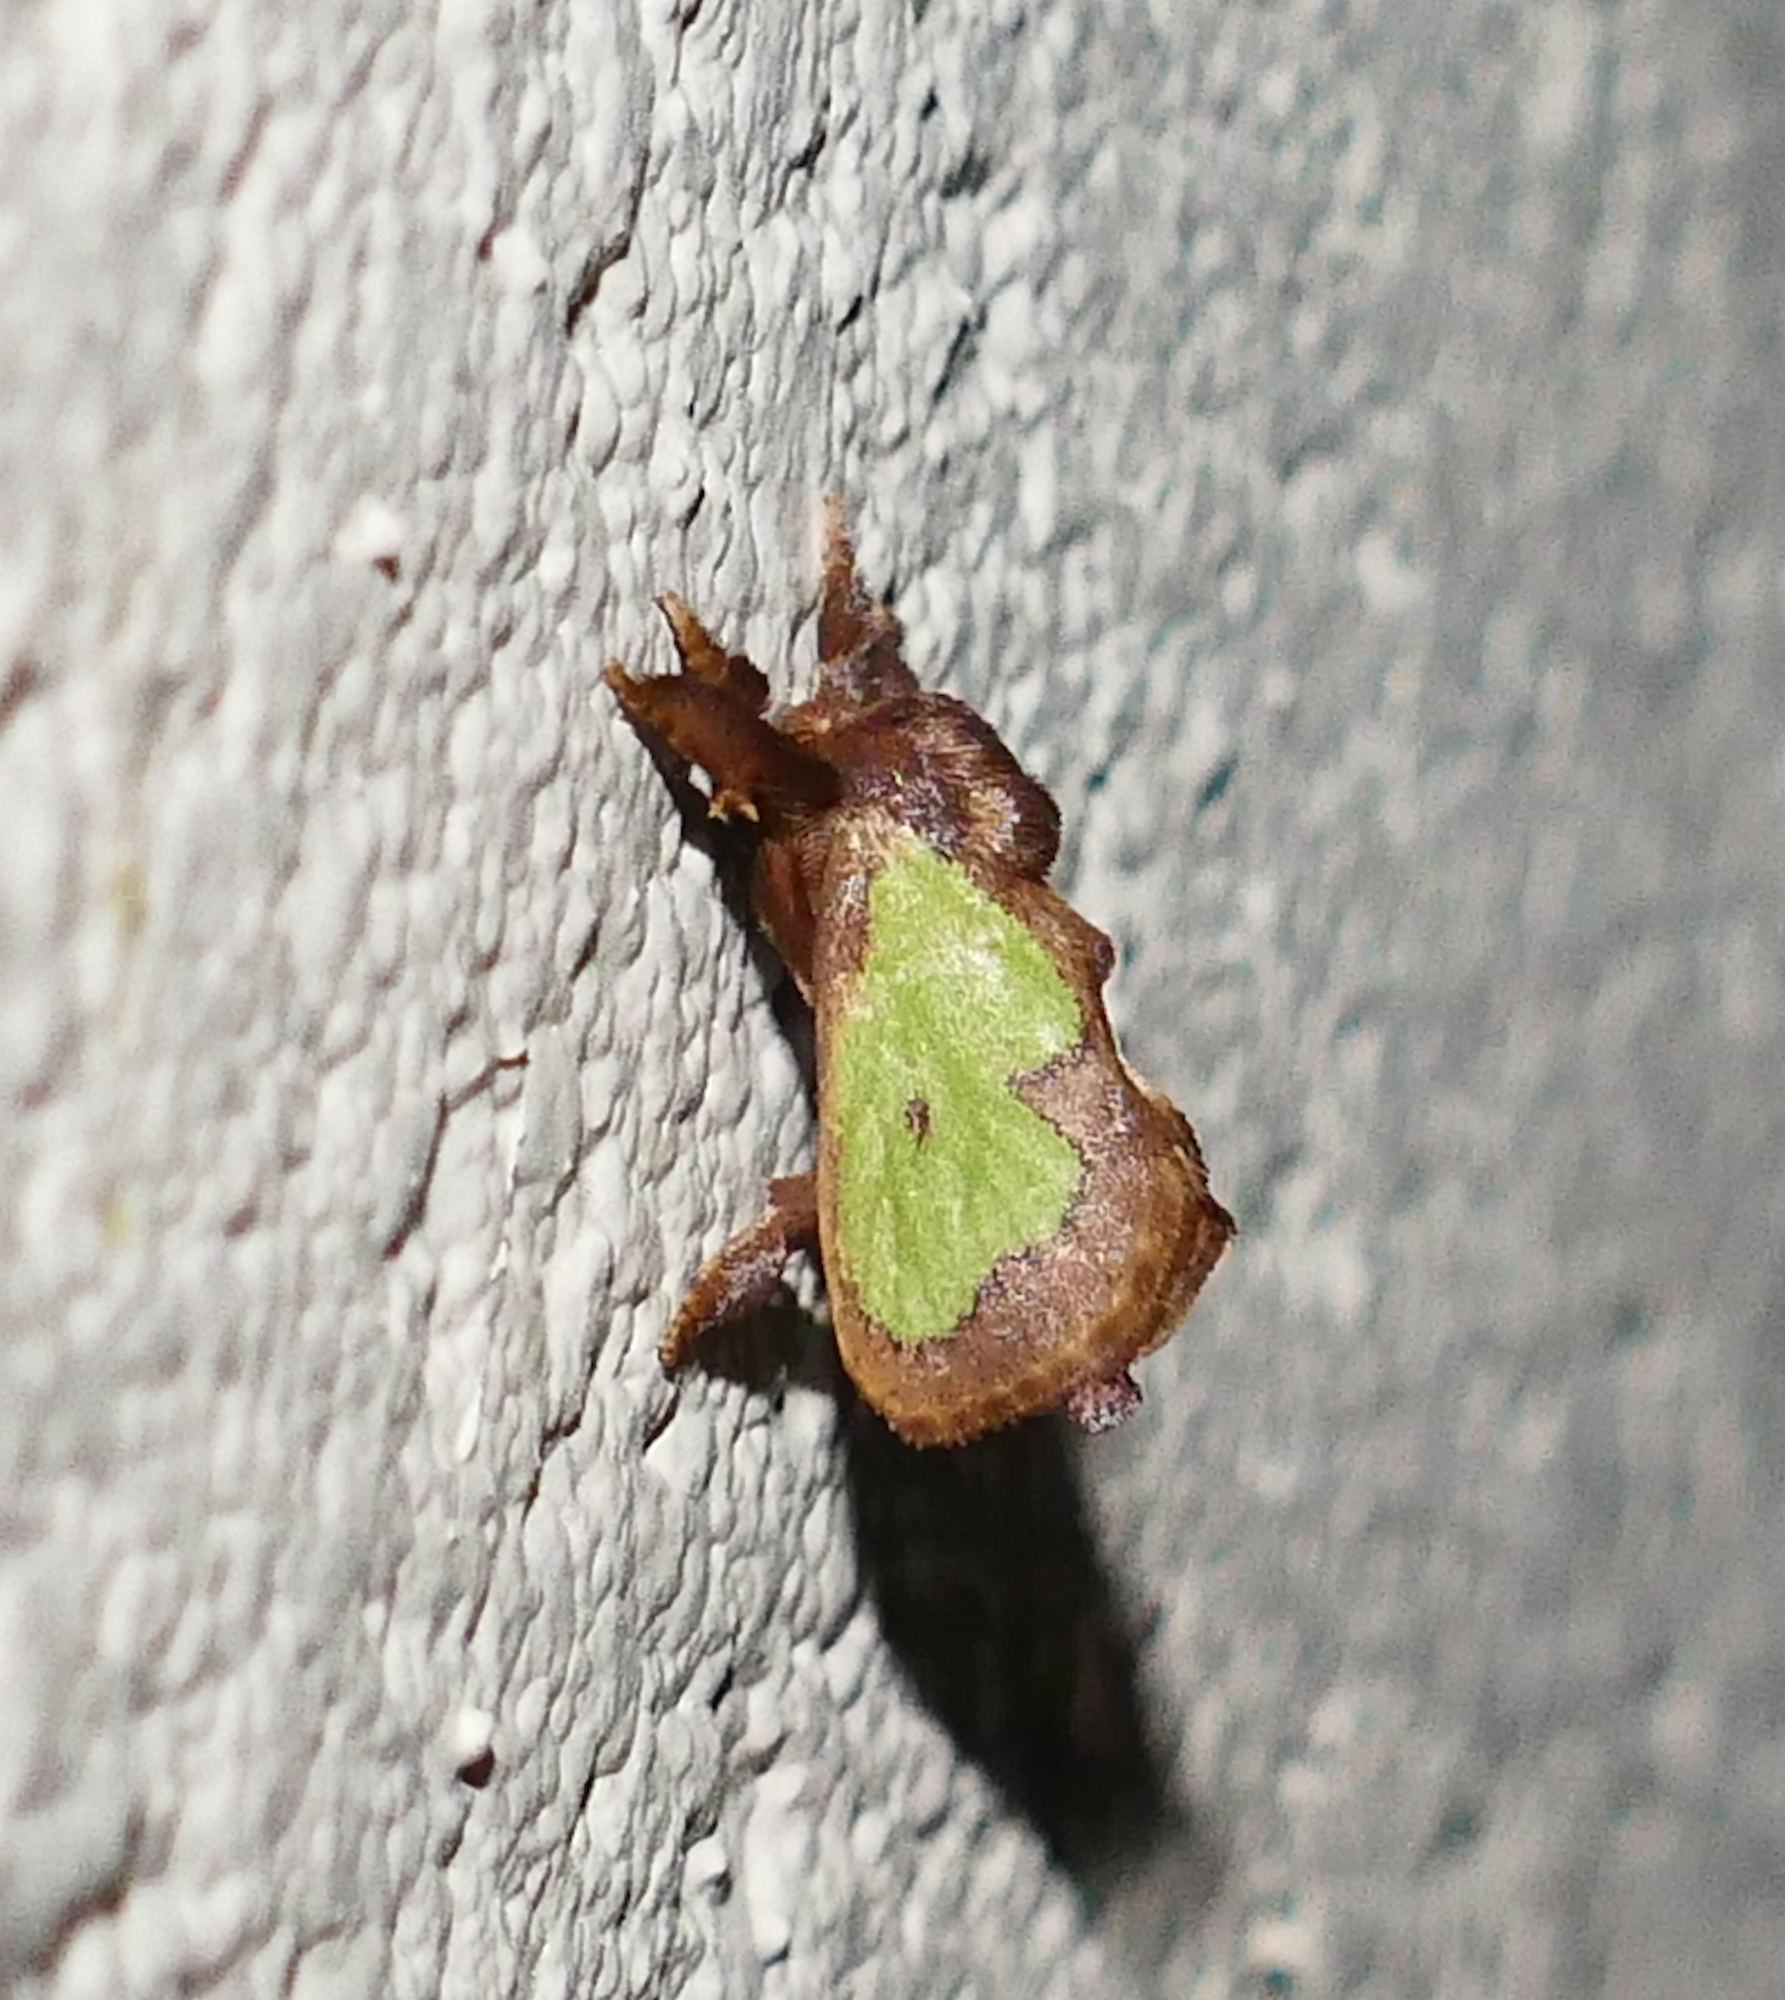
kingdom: Animalia
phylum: Arthropoda
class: Insecta
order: Lepidoptera
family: Limacodidae
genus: Euclea
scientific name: Euclea
